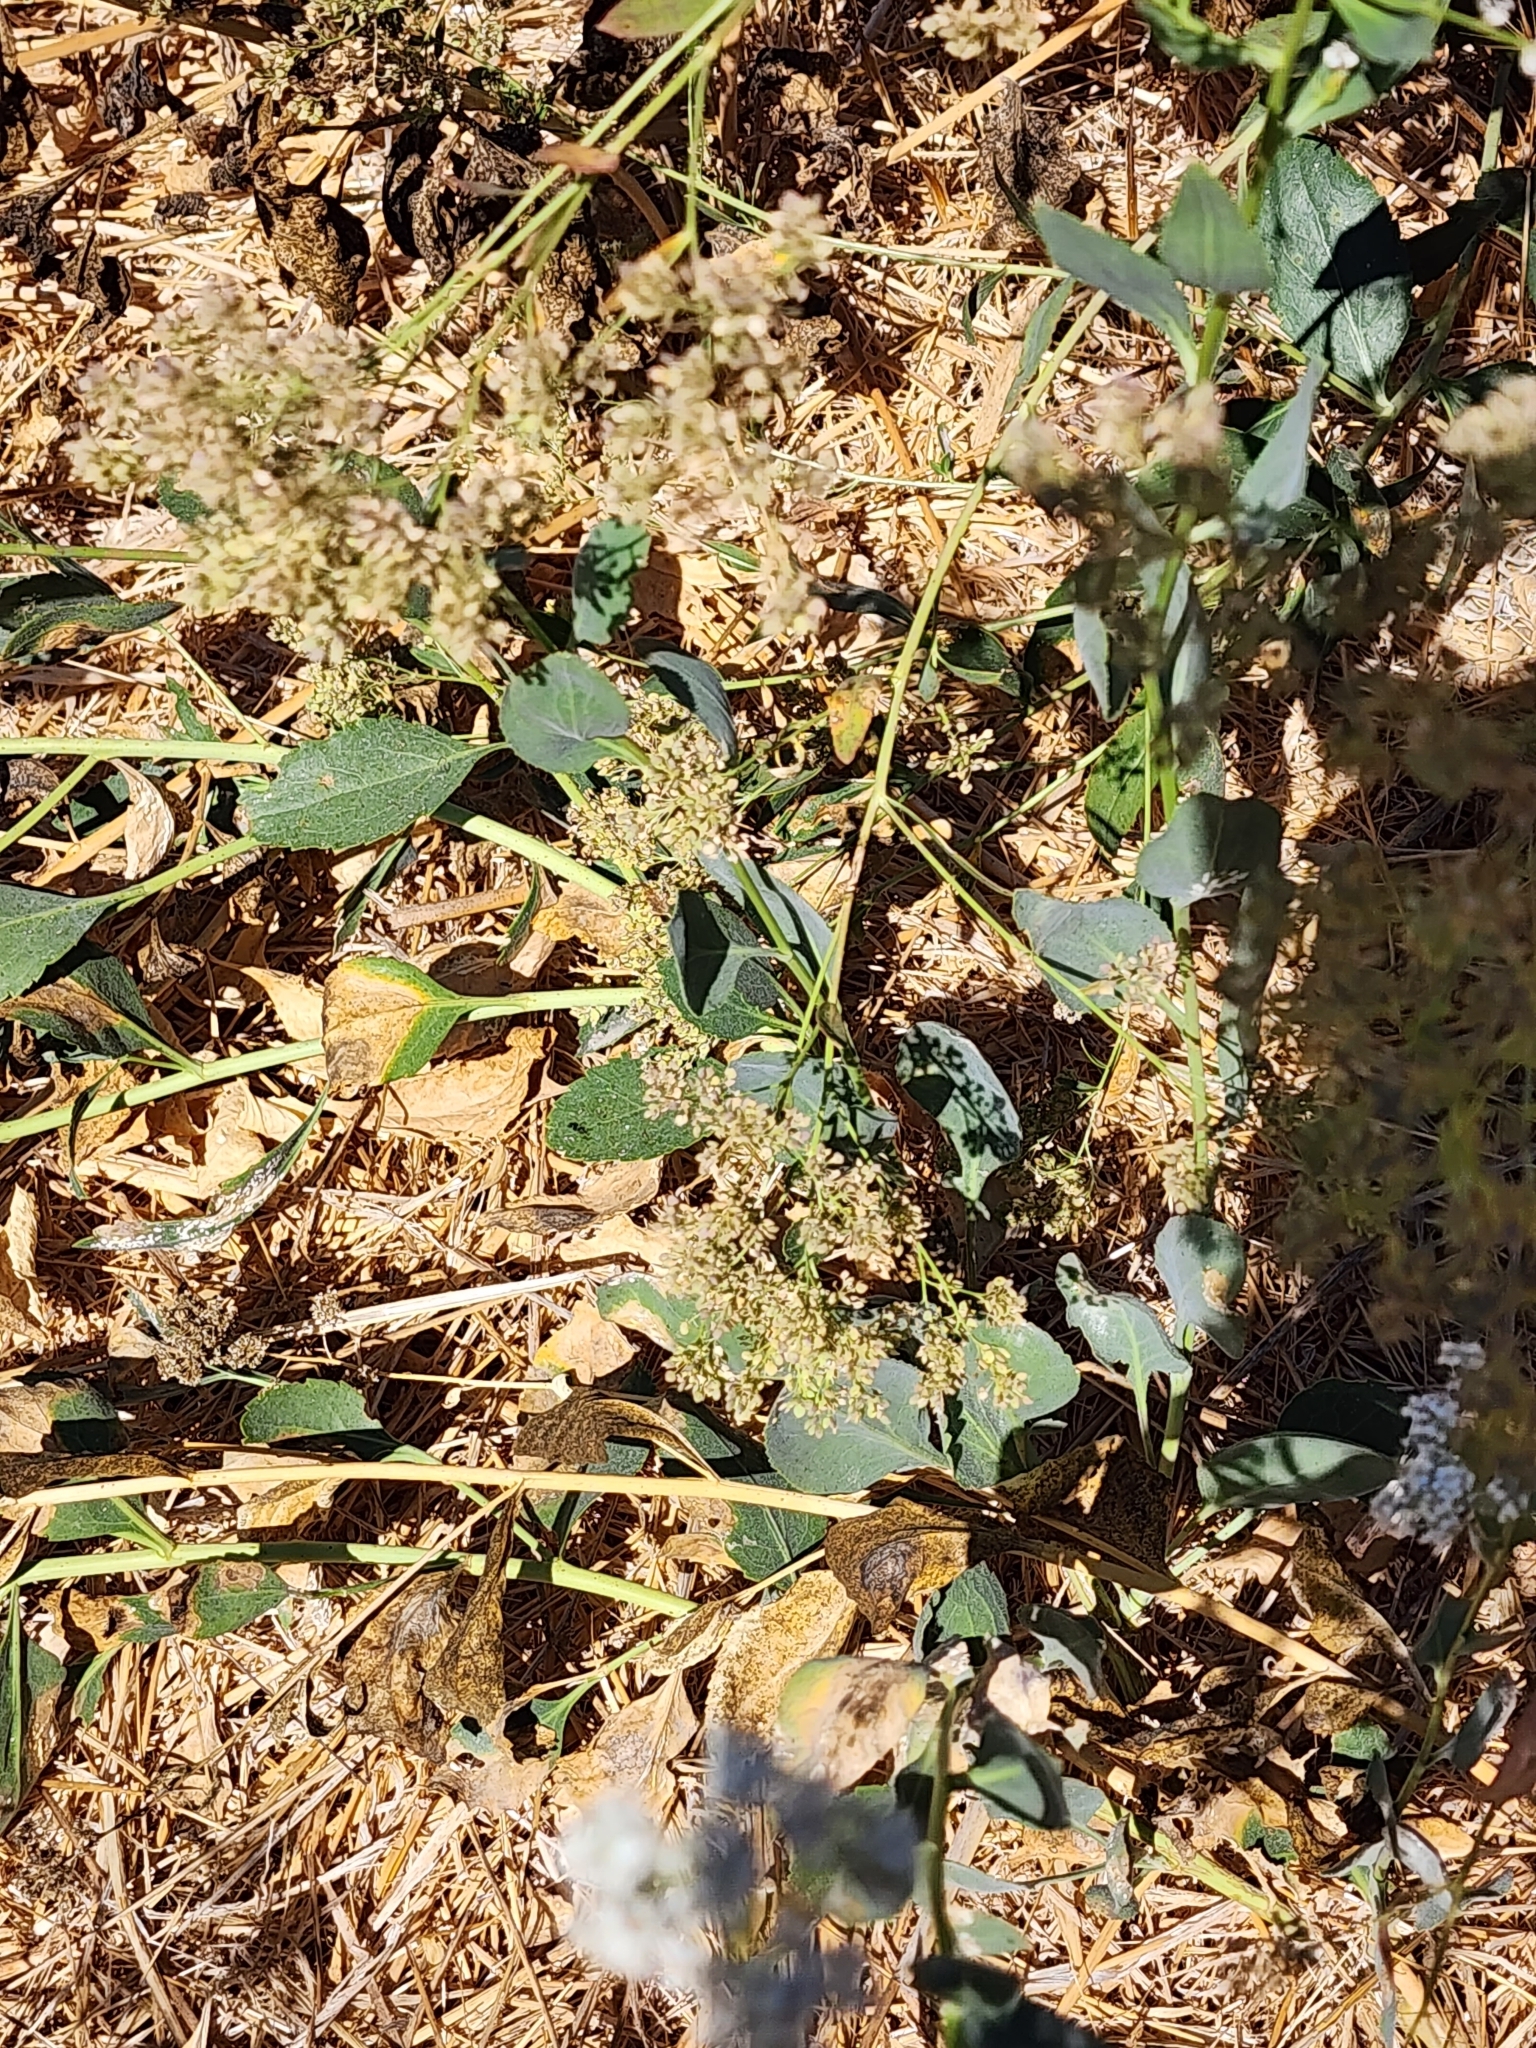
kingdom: Plantae
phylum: Tracheophyta
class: Magnoliopsida
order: Brassicales
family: Brassicaceae
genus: Lepidium
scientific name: Lepidium latifolium
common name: Dittander
